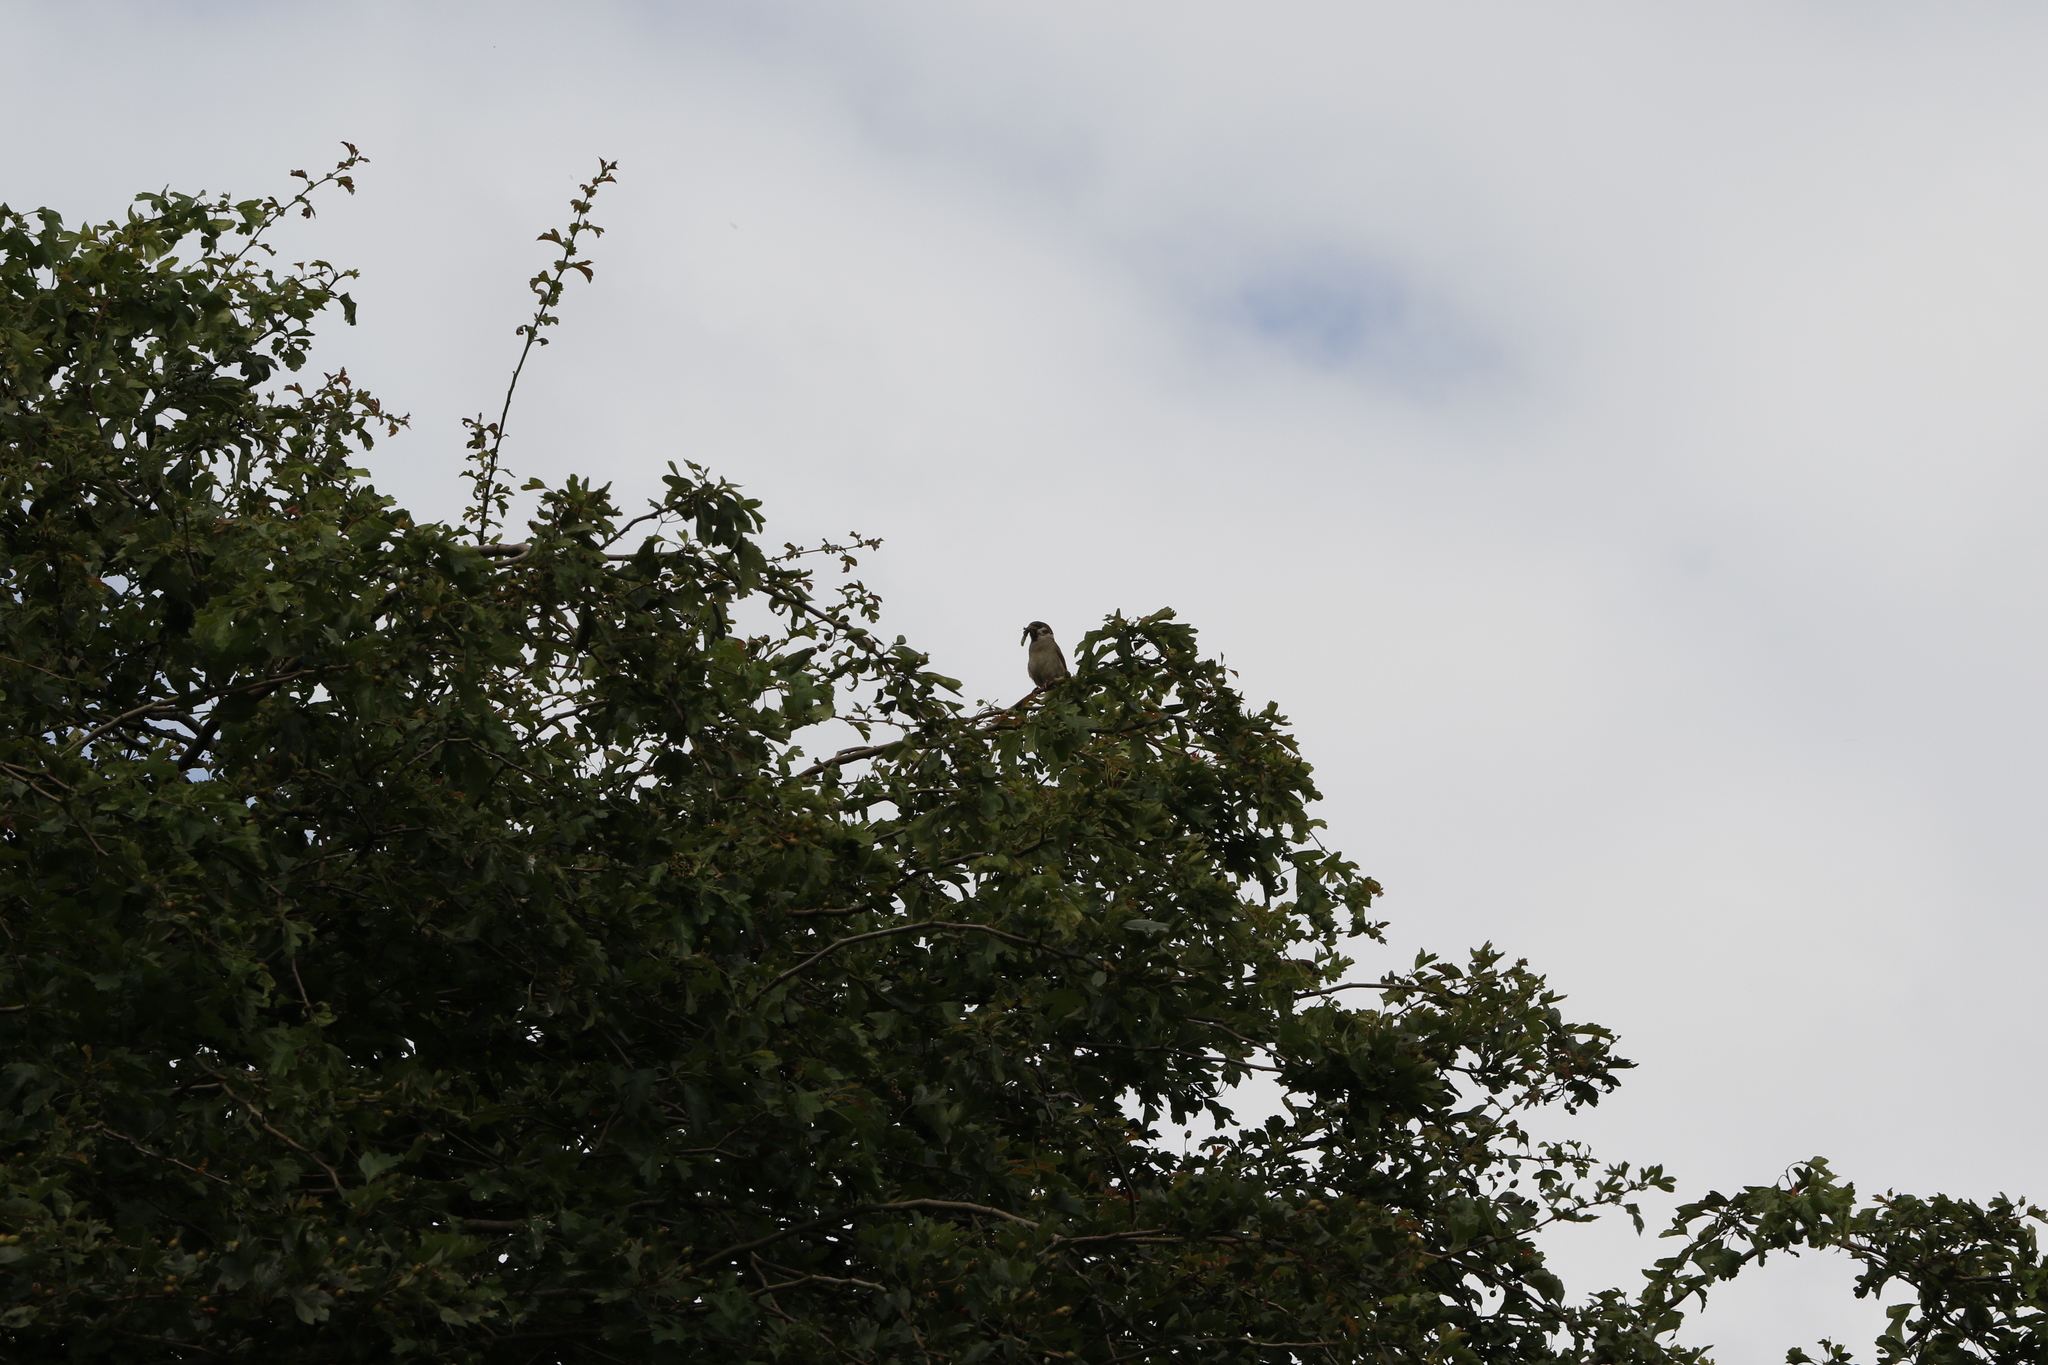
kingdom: Animalia
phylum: Chordata
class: Aves
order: Passeriformes
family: Passeridae
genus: Passer
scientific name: Passer montanus
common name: Eurasian tree sparrow
